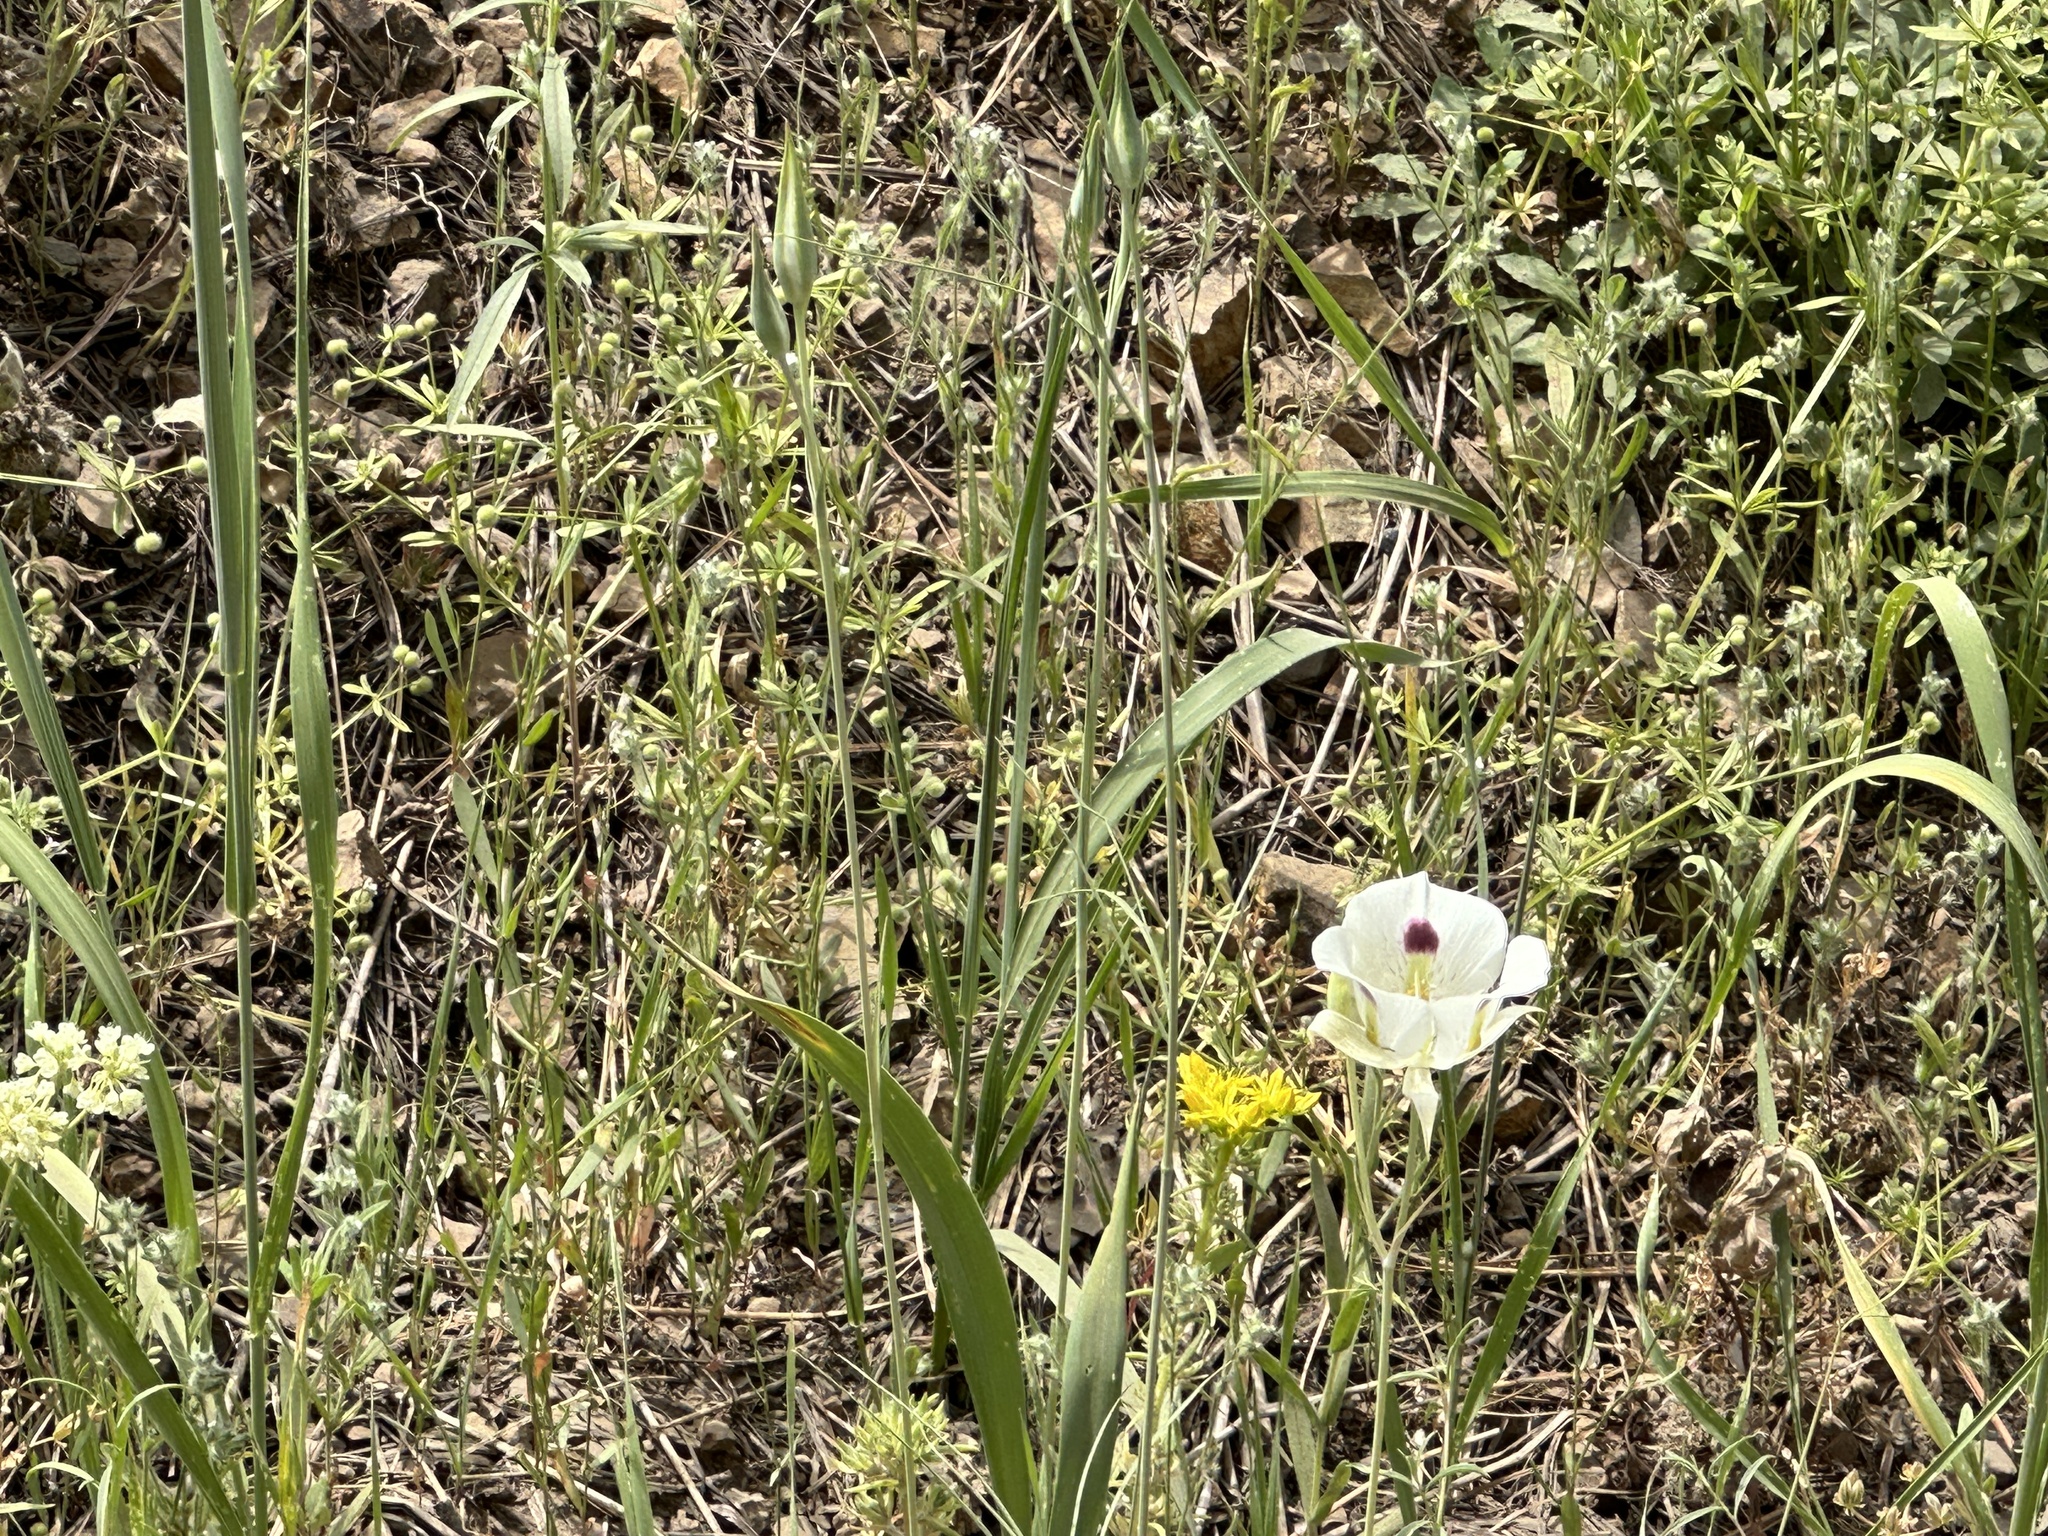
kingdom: Plantae
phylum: Tracheophyta
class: Liliopsida
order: Liliales
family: Liliaceae
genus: Calochortus
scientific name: Calochortus eurycarpus
